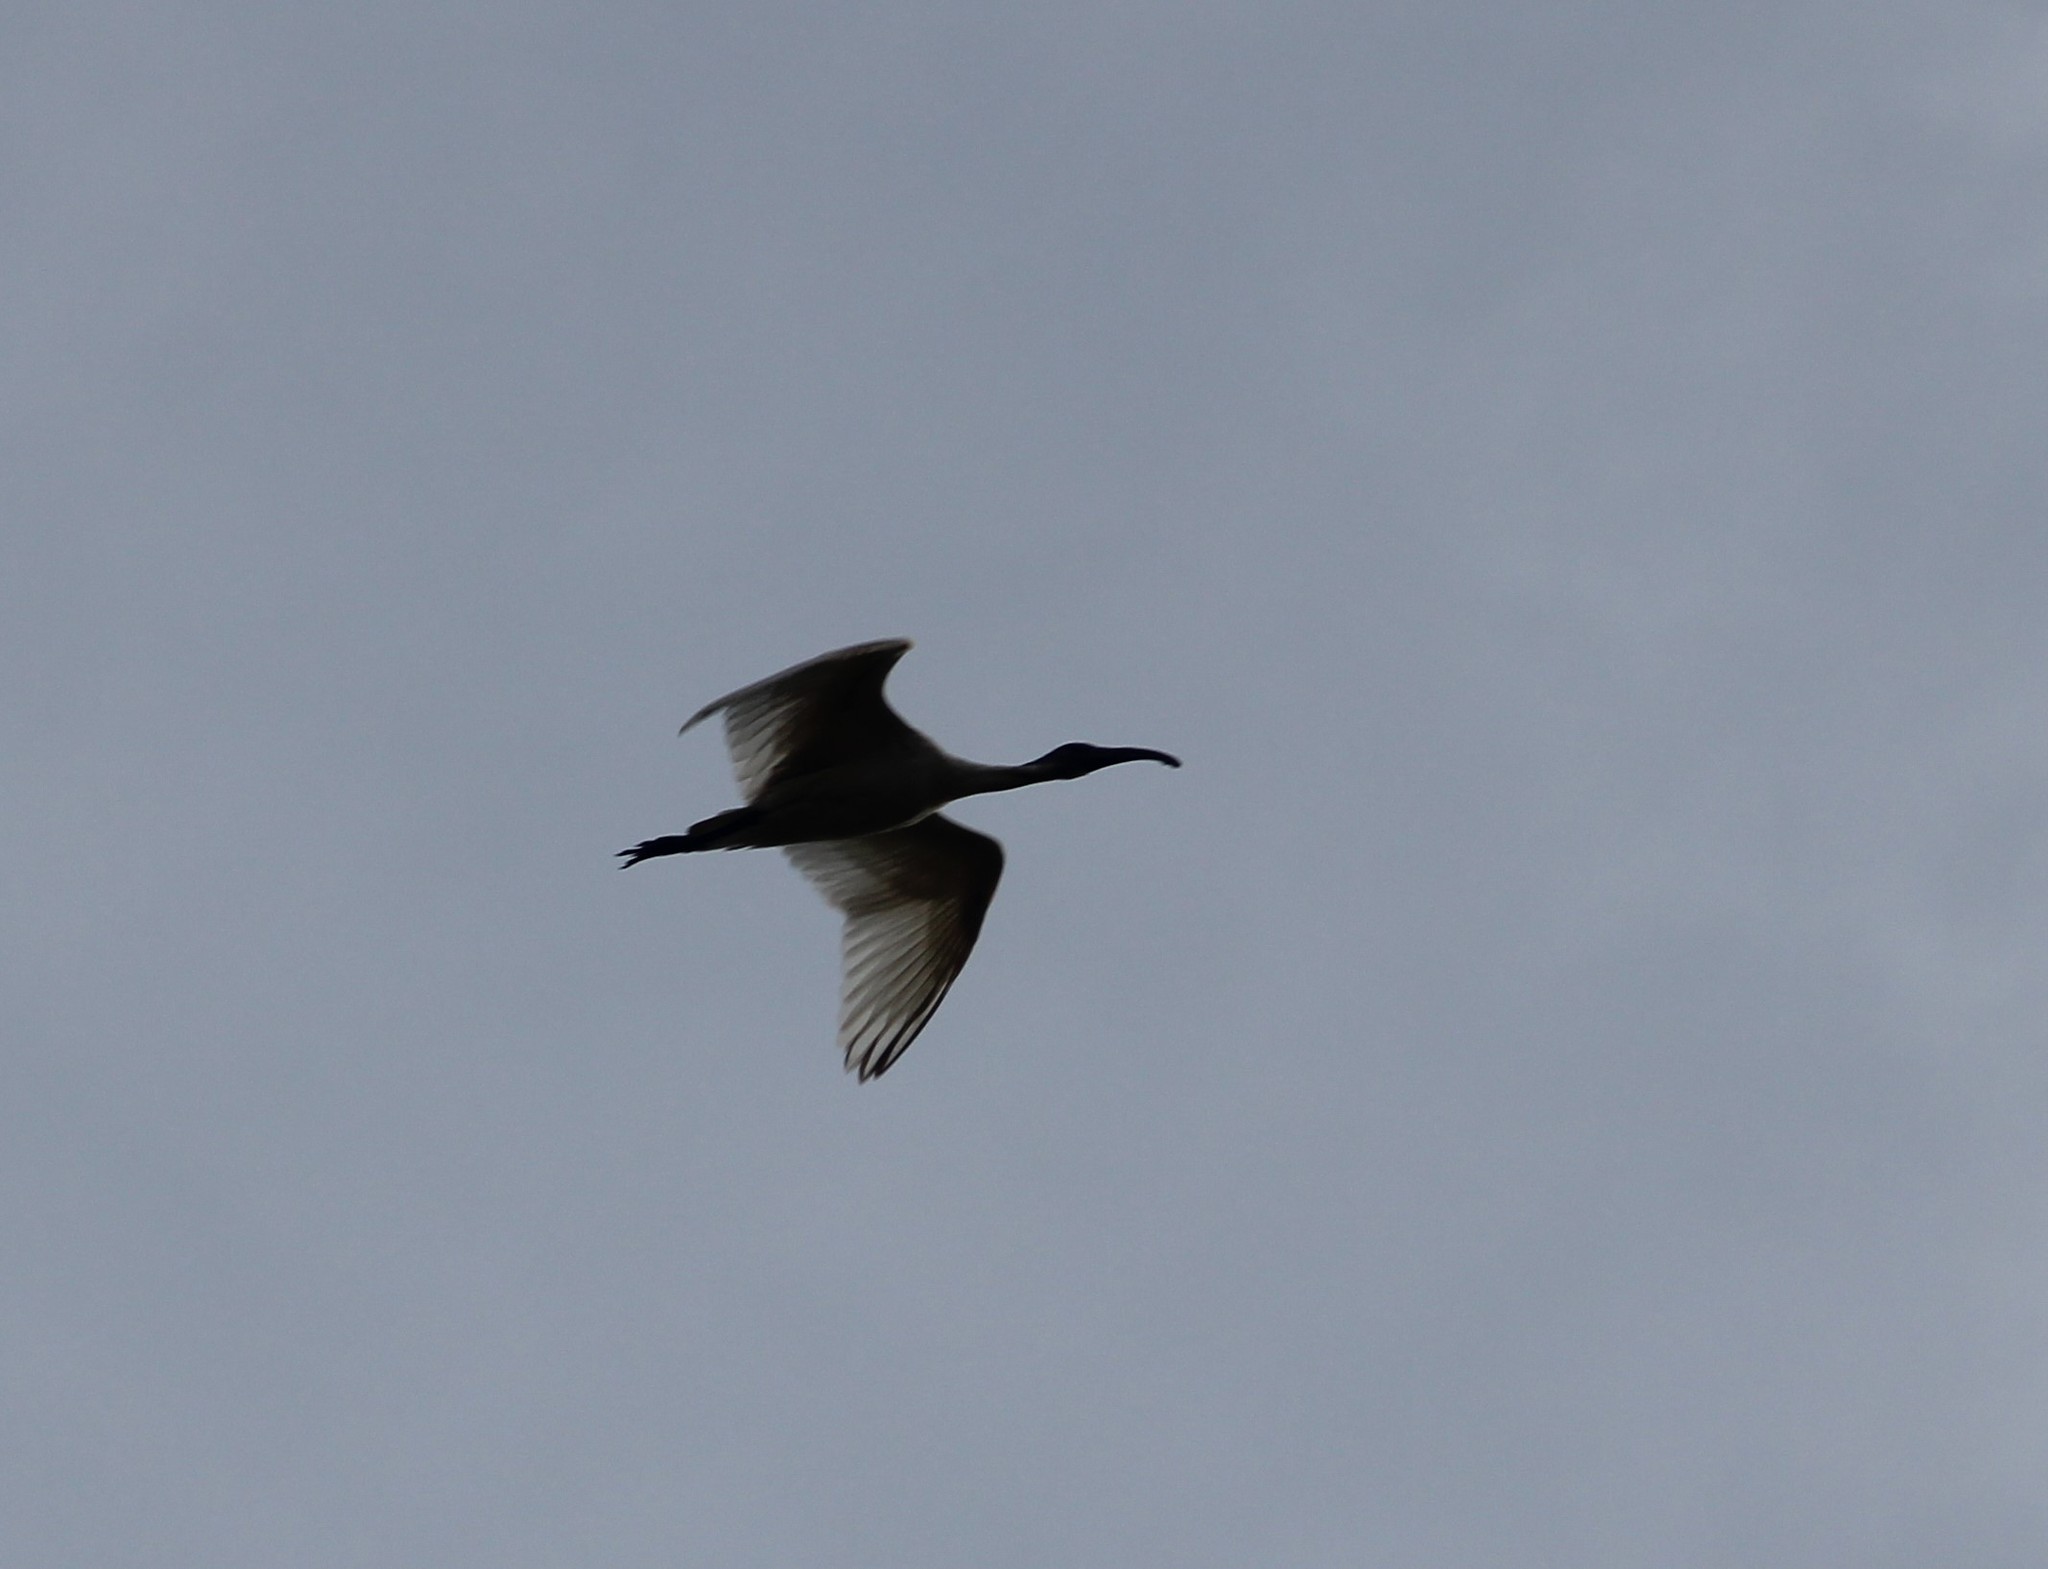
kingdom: Animalia
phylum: Chordata
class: Aves
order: Pelecaniformes
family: Threskiornithidae
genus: Threskiornis
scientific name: Threskiornis melanocephalus
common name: Black-headed ibis
